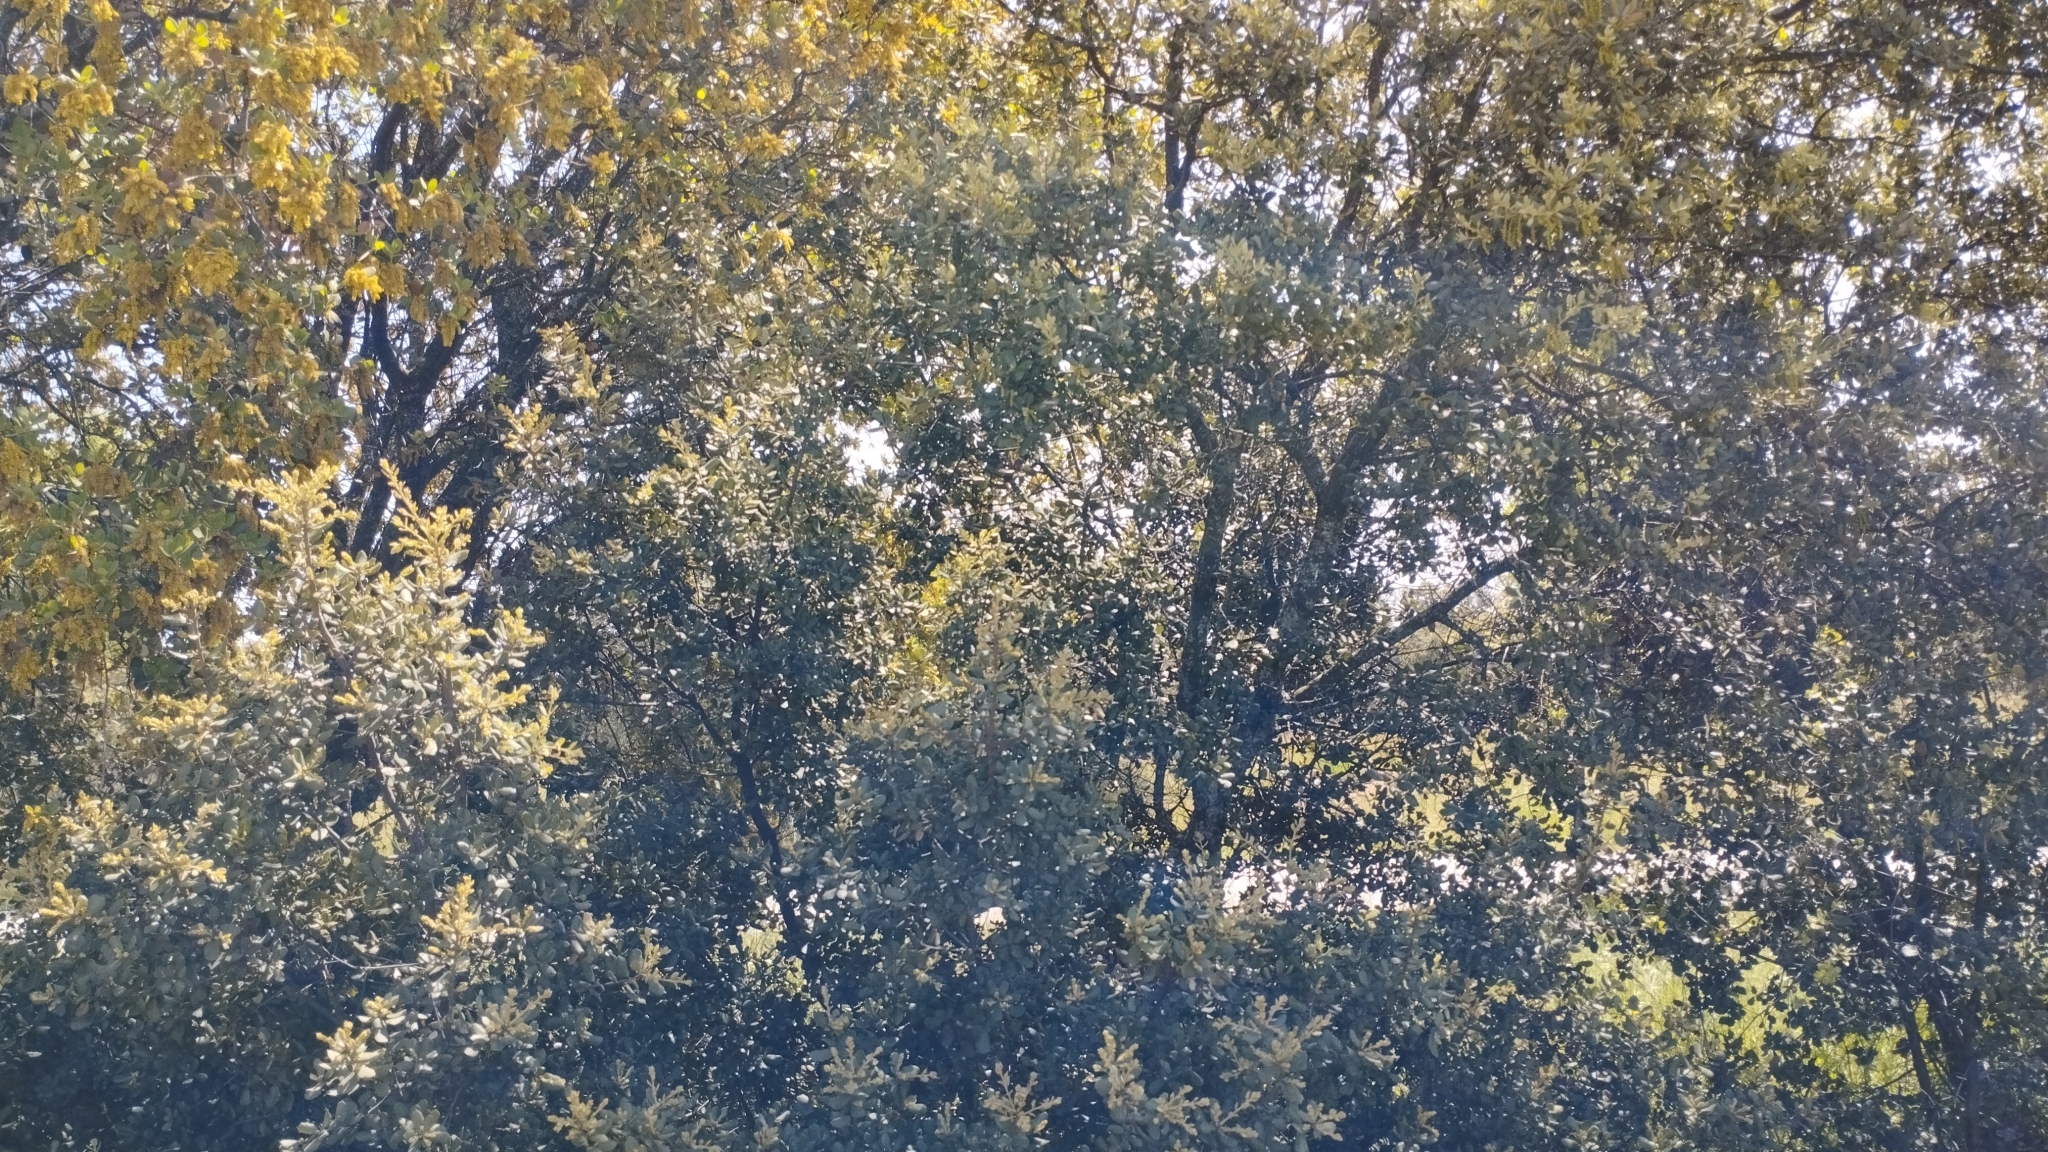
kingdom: Plantae
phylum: Tracheophyta
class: Magnoliopsida
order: Fagales
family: Fagaceae
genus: Quercus
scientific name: Quercus rotundifolia
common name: Holm oak
